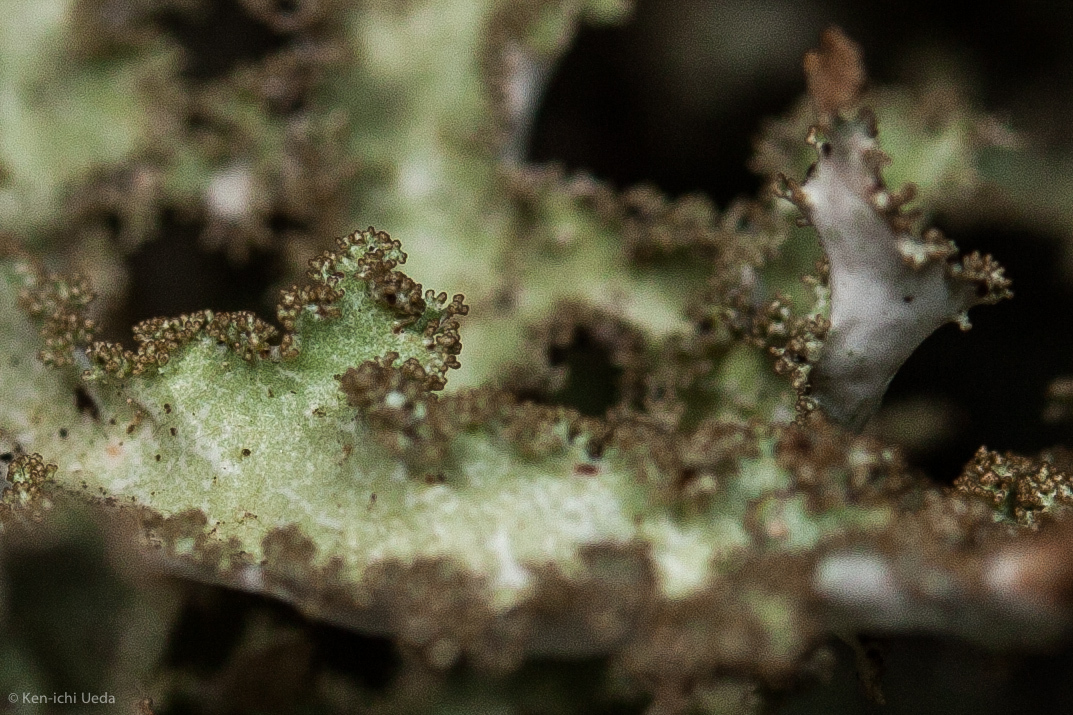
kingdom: Fungi
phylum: Ascomycota
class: Lecanoromycetes
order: Lecanorales
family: Parmeliaceae
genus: Platismatia
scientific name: Platismatia herrei
